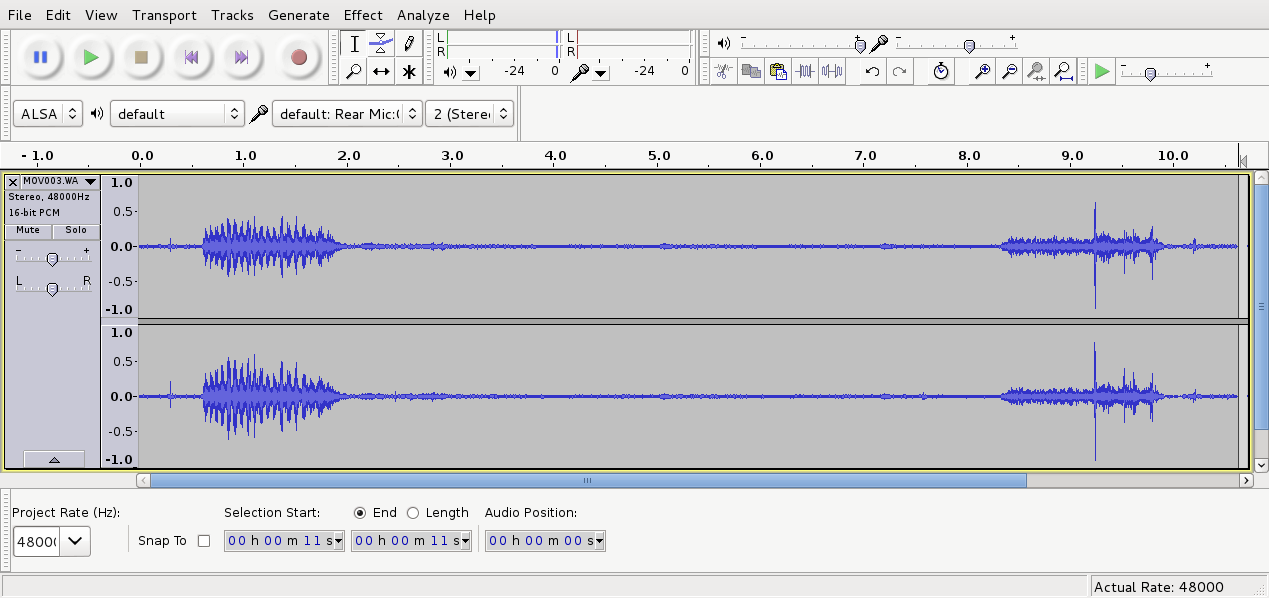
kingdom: Animalia
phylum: Chordata
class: Aves
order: Psittaciformes
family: Psittacidae
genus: Cyanoramphus
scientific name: Cyanoramphus novaezelandiae
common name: Red-fronted parakeet
